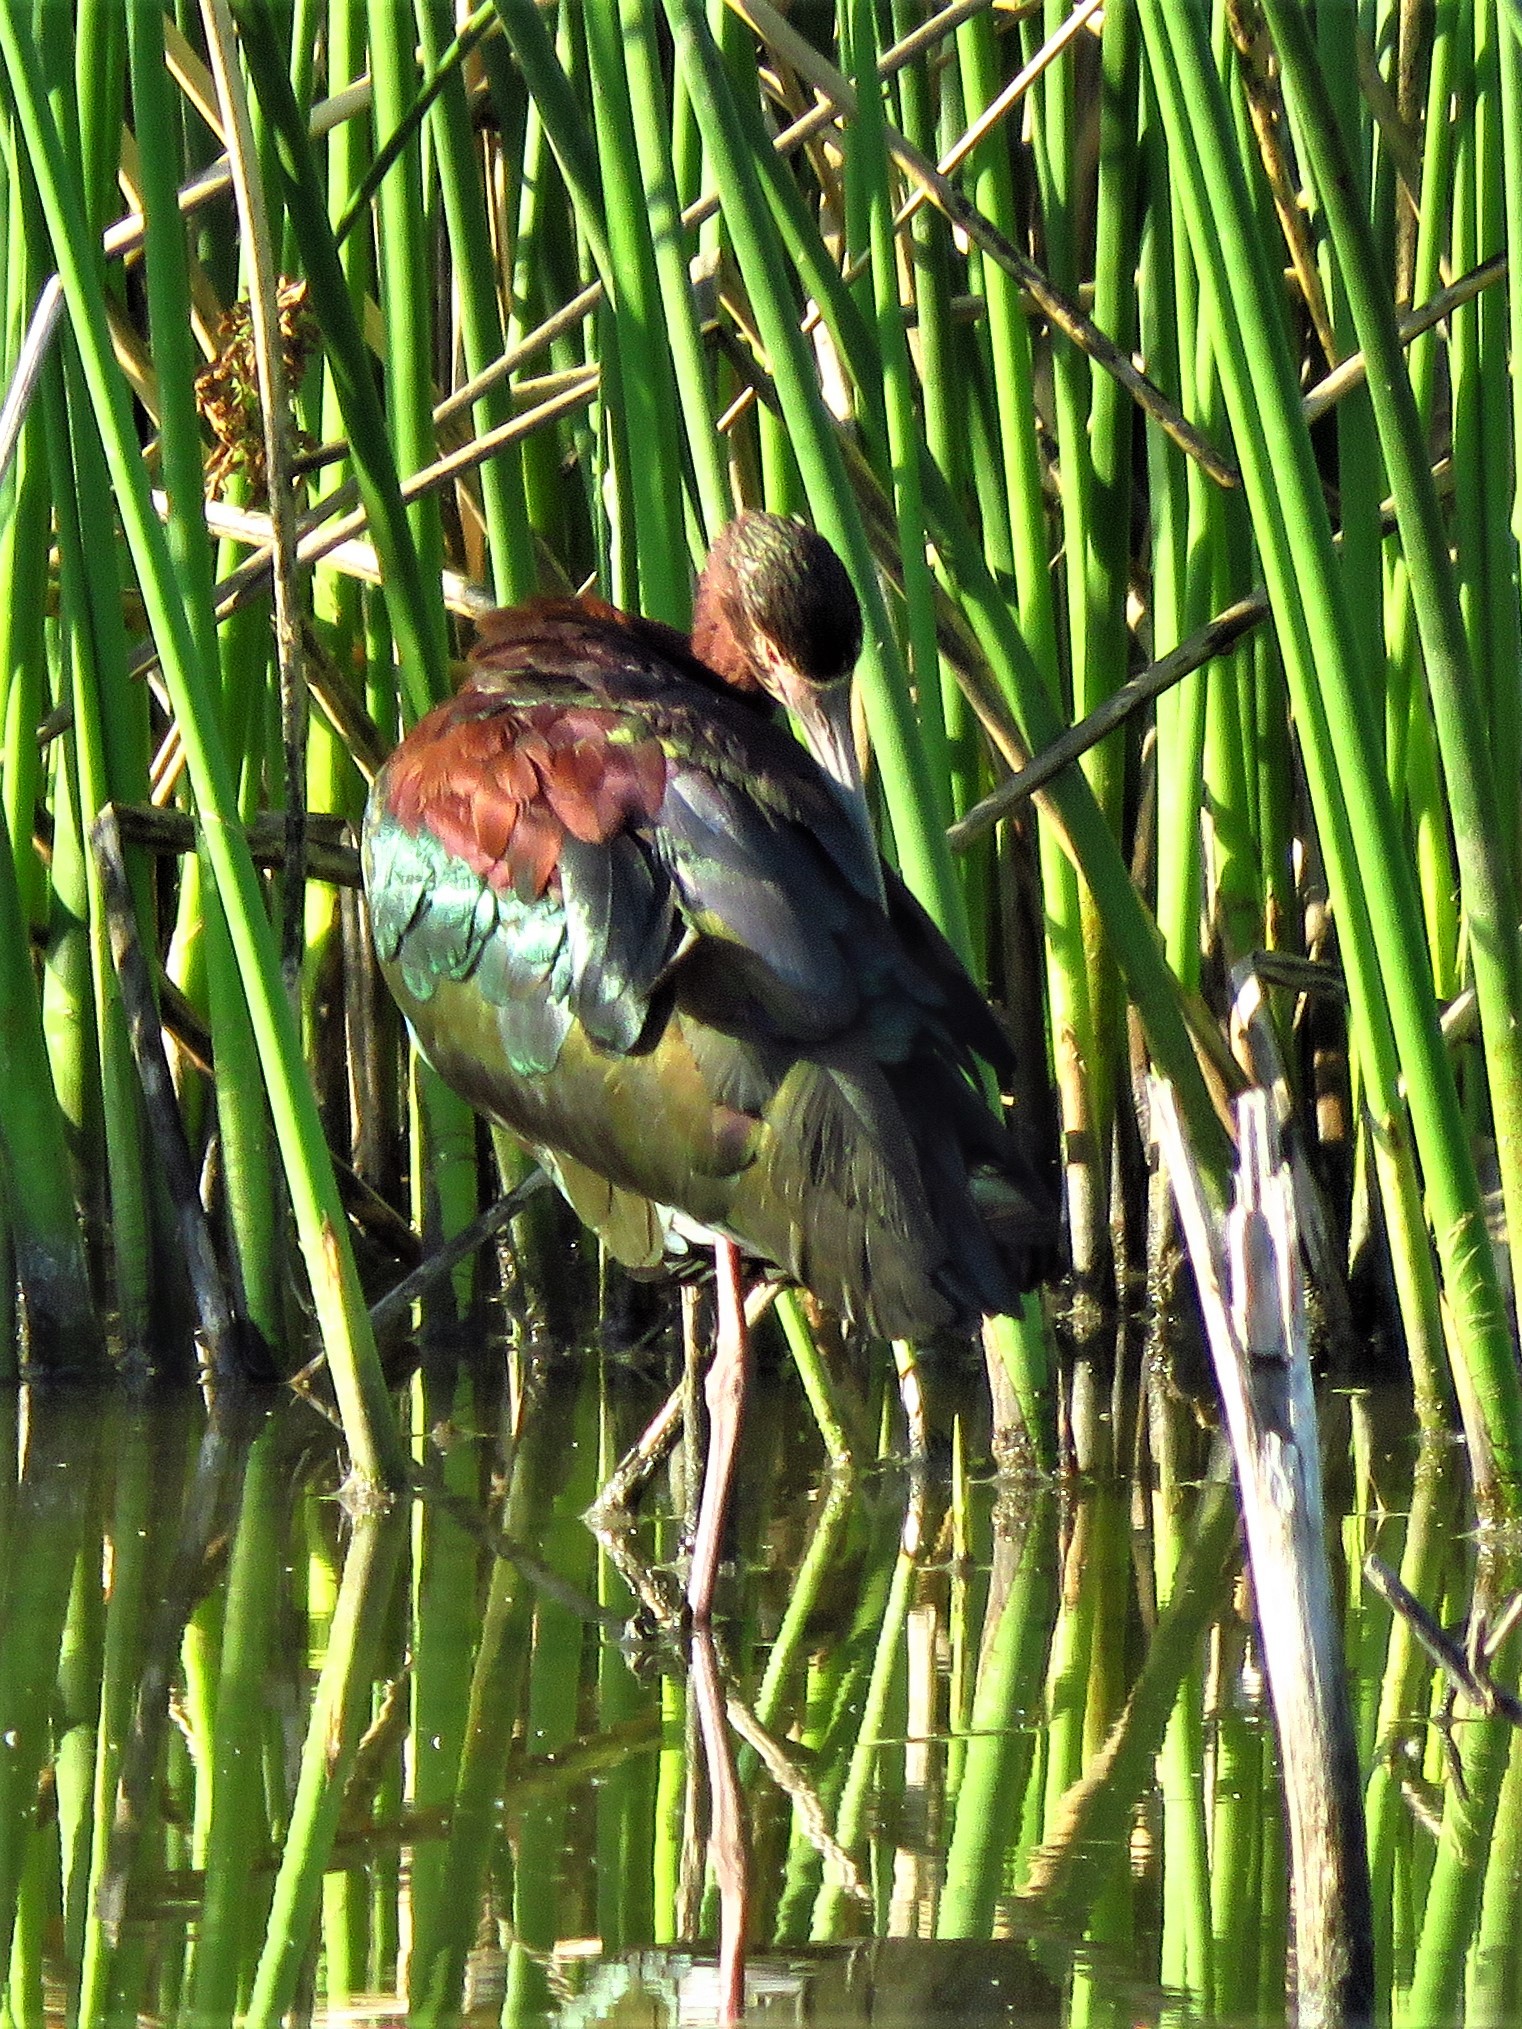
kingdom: Animalia
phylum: Chordata
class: Aves
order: Pelecaniformes
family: Threskiornithidae
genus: Plegadis
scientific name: Plegadis chihi
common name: White-faced ibis
